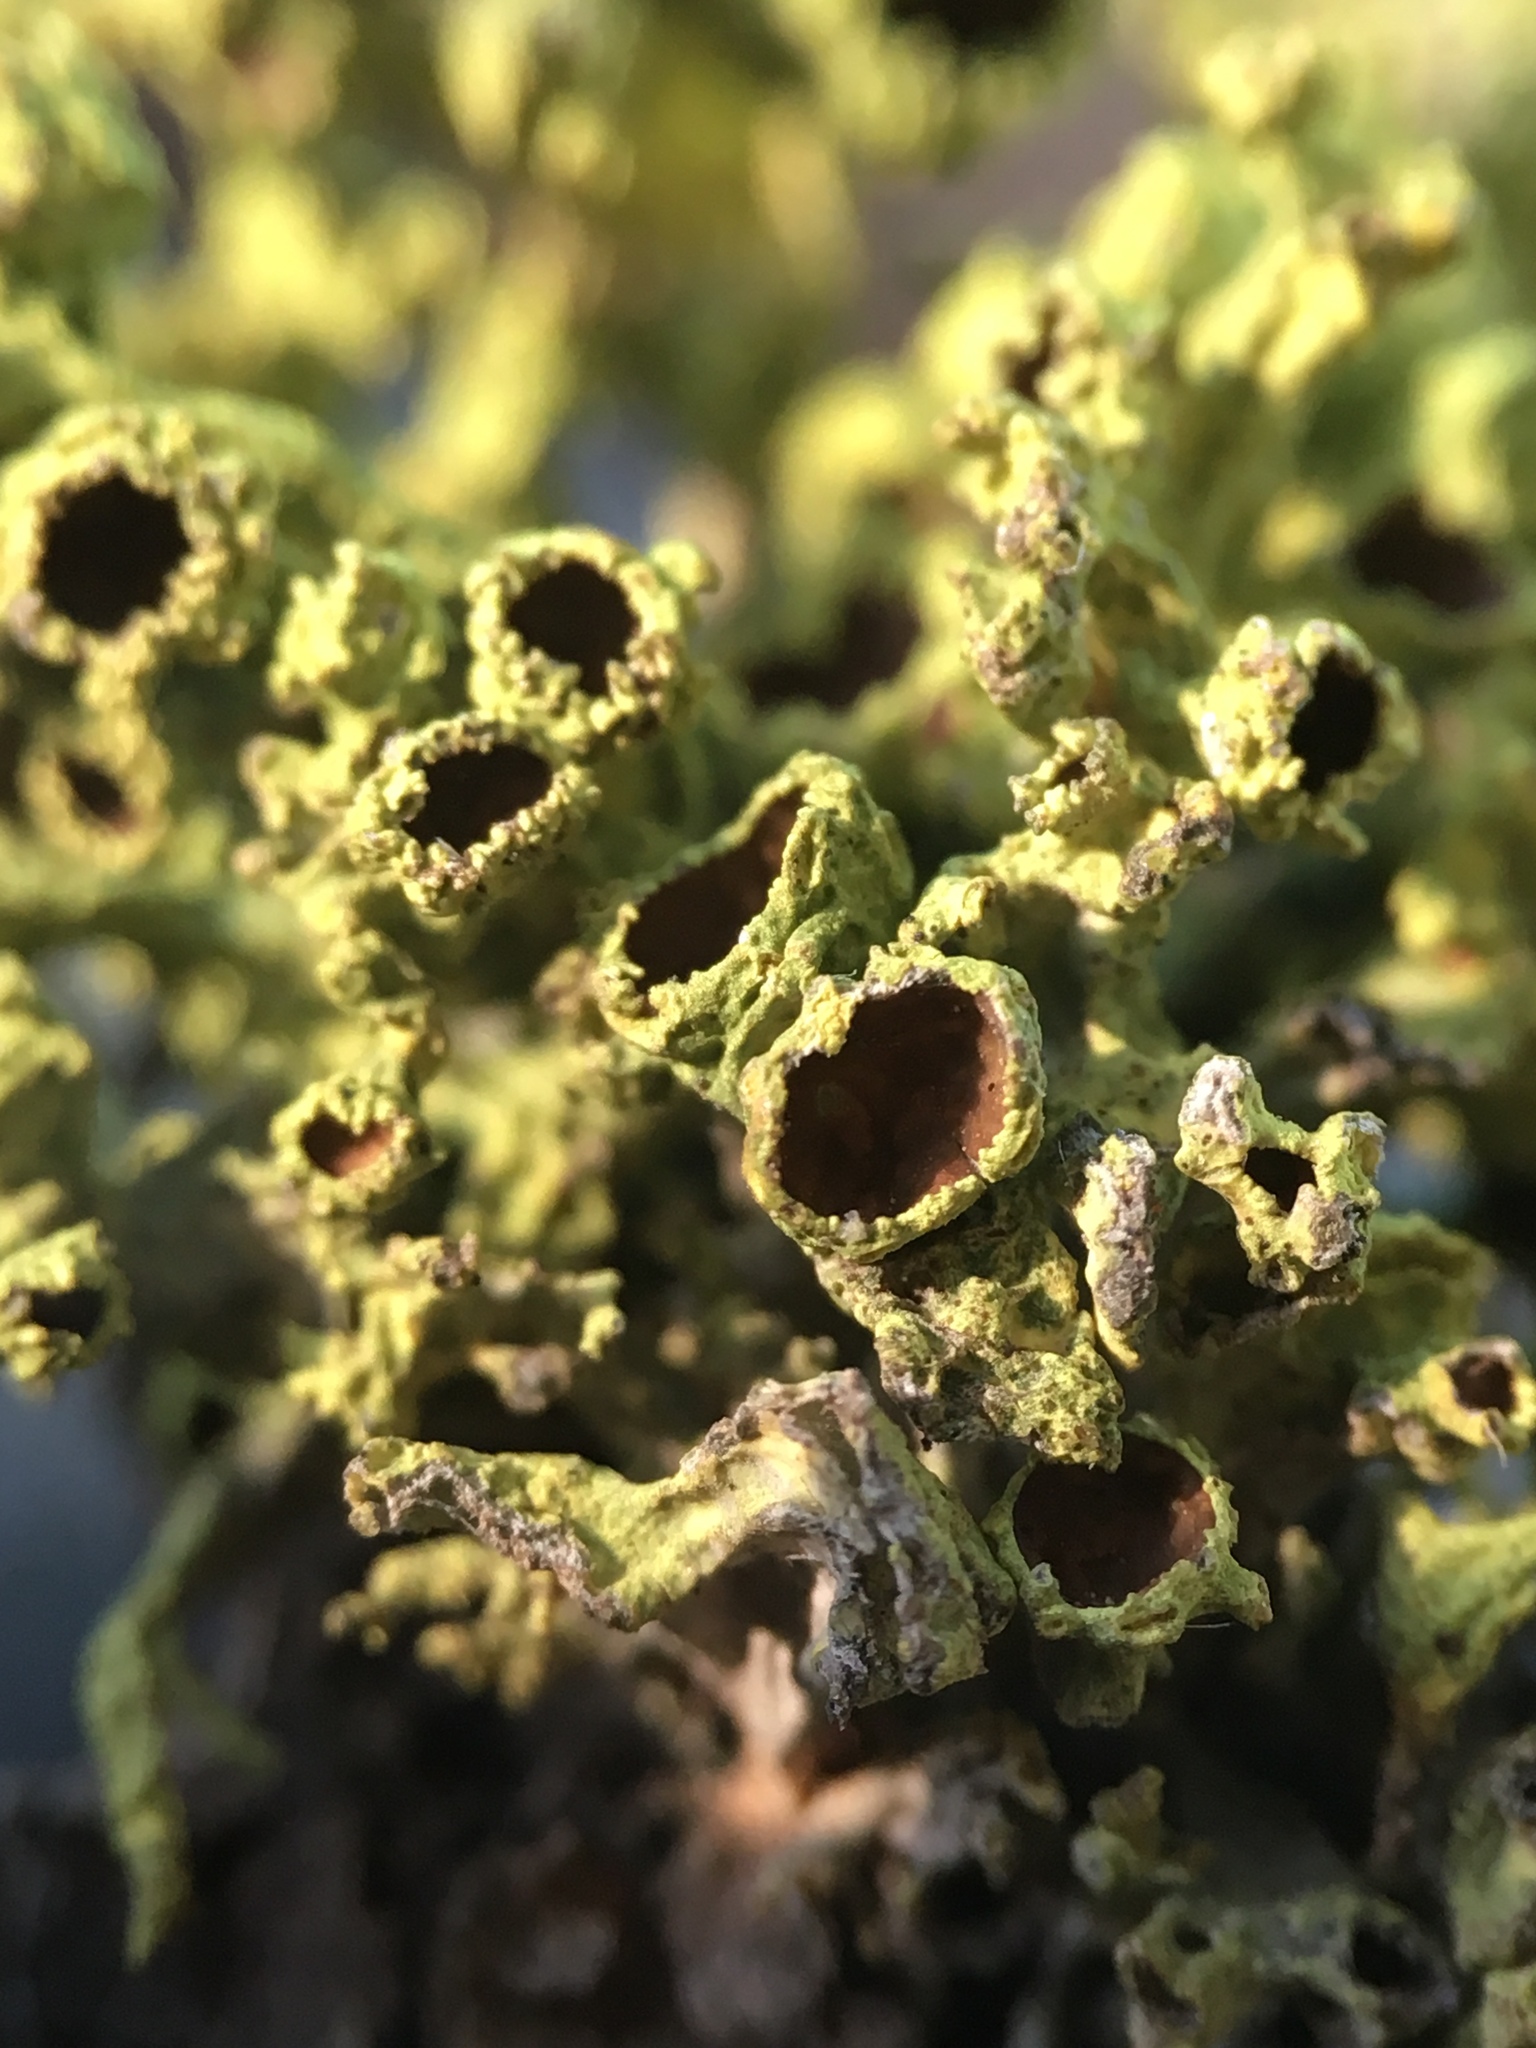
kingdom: Fungi
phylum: Ascomycota
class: Lecanoromycetes
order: Lecanorales
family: Parmeliaceae
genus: Letharia
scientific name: Letharia columbiana
